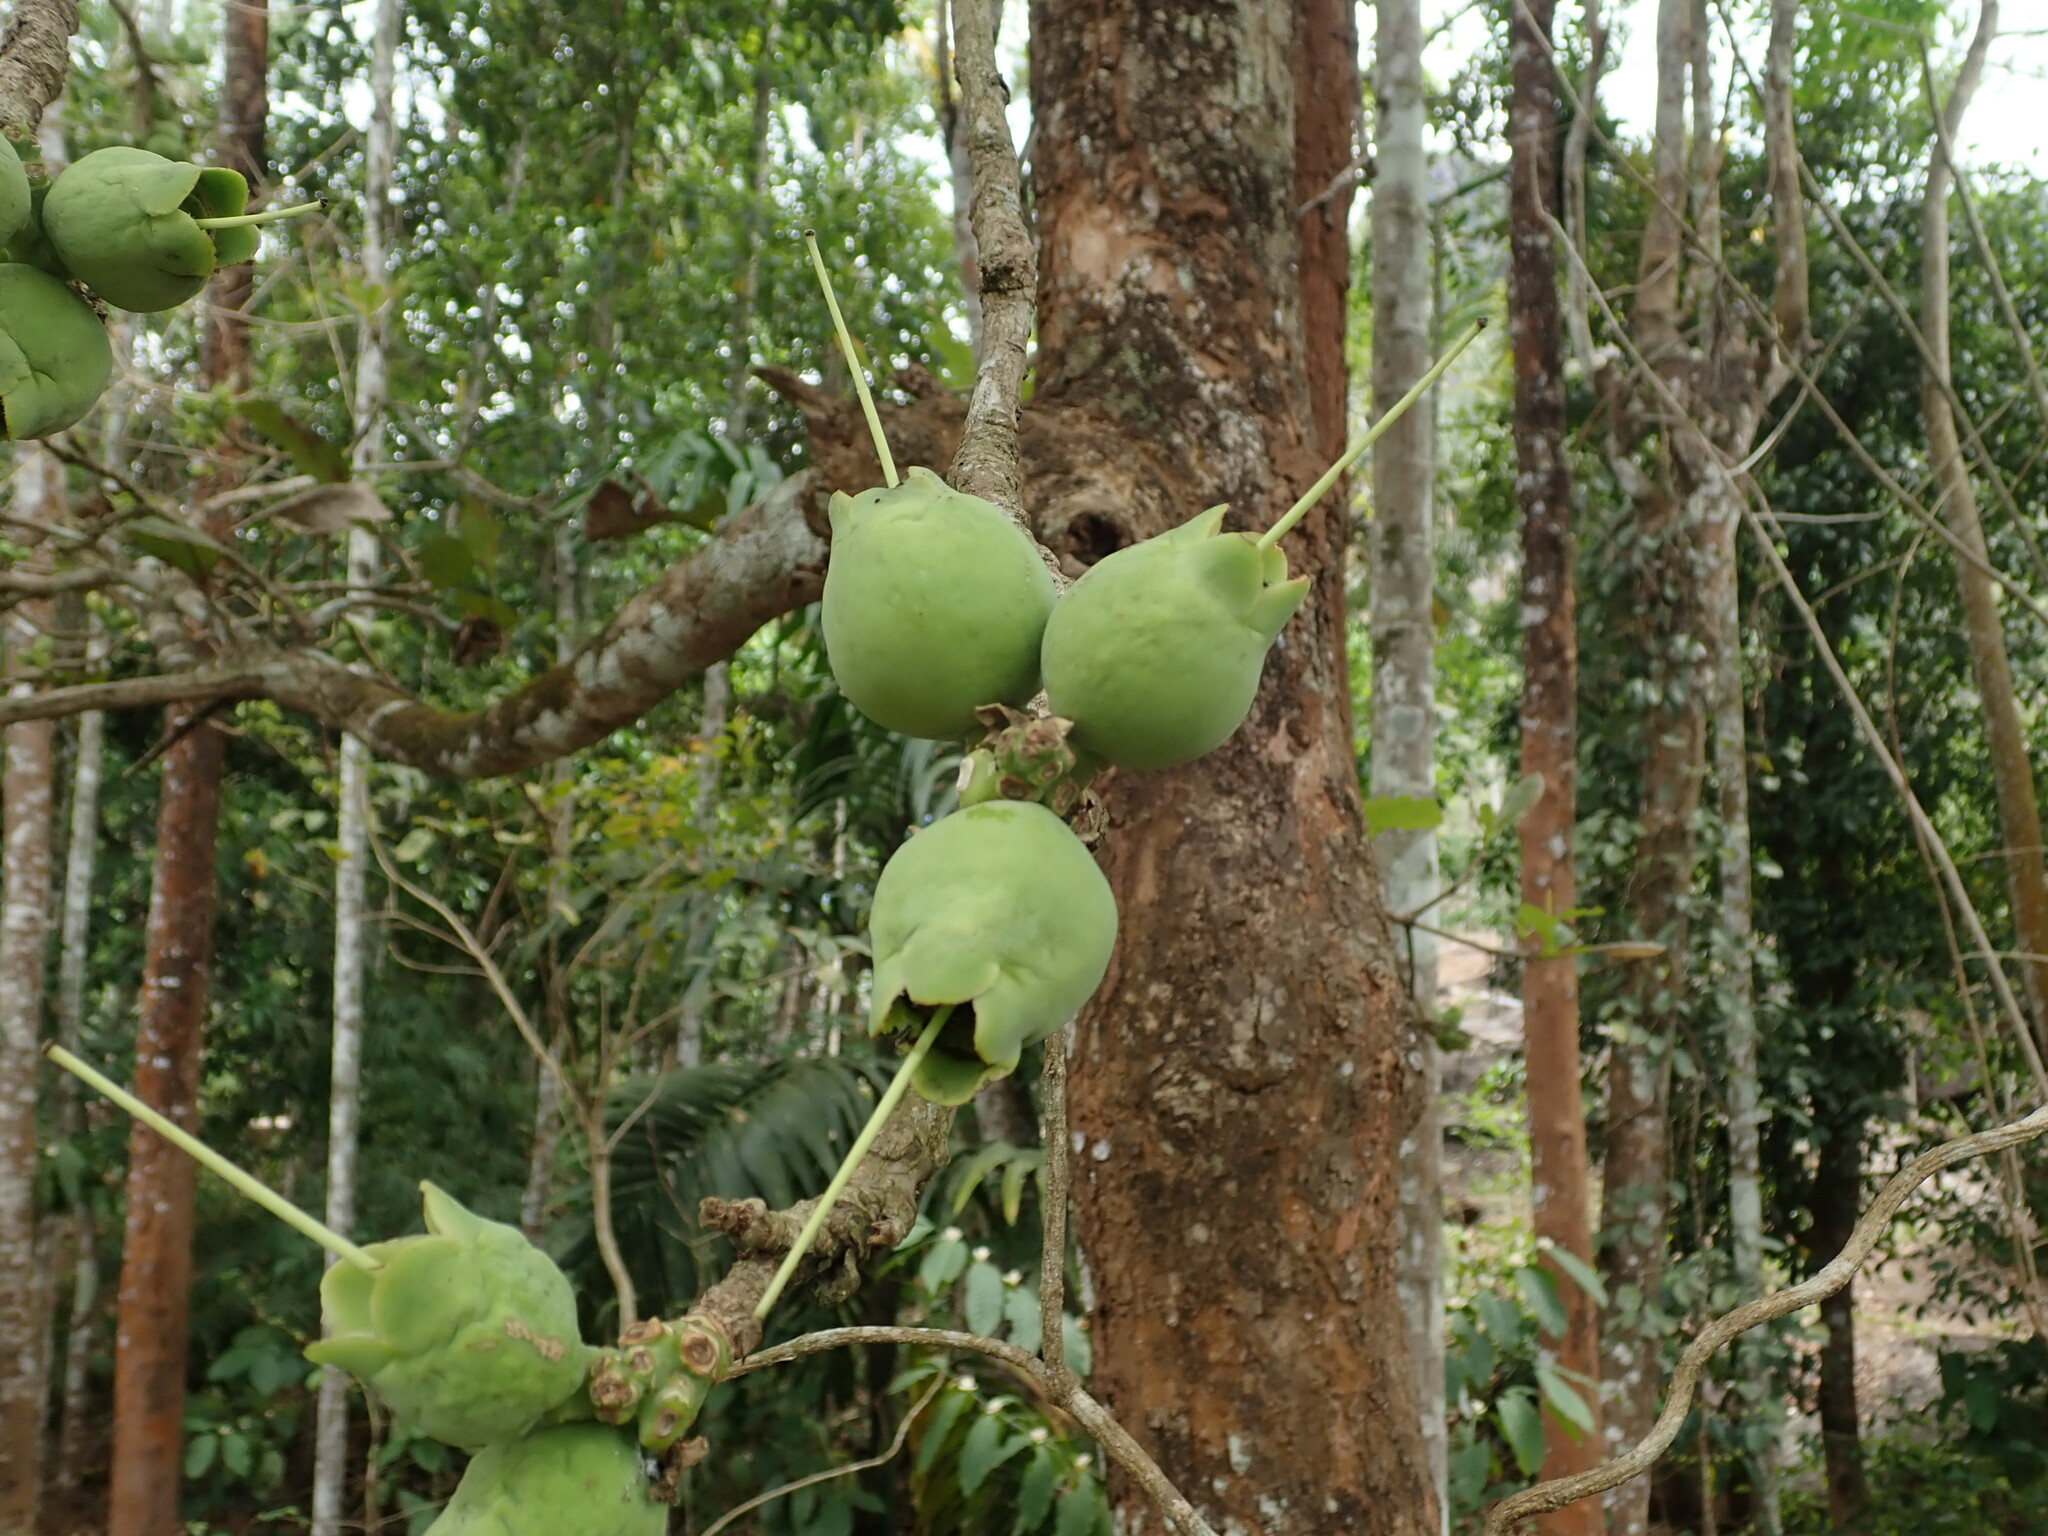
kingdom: Plantae
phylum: Tracheophyta
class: Magnoliopsida
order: Ericales
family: Lecythidaceae
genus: Careya
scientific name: Careya arborea
